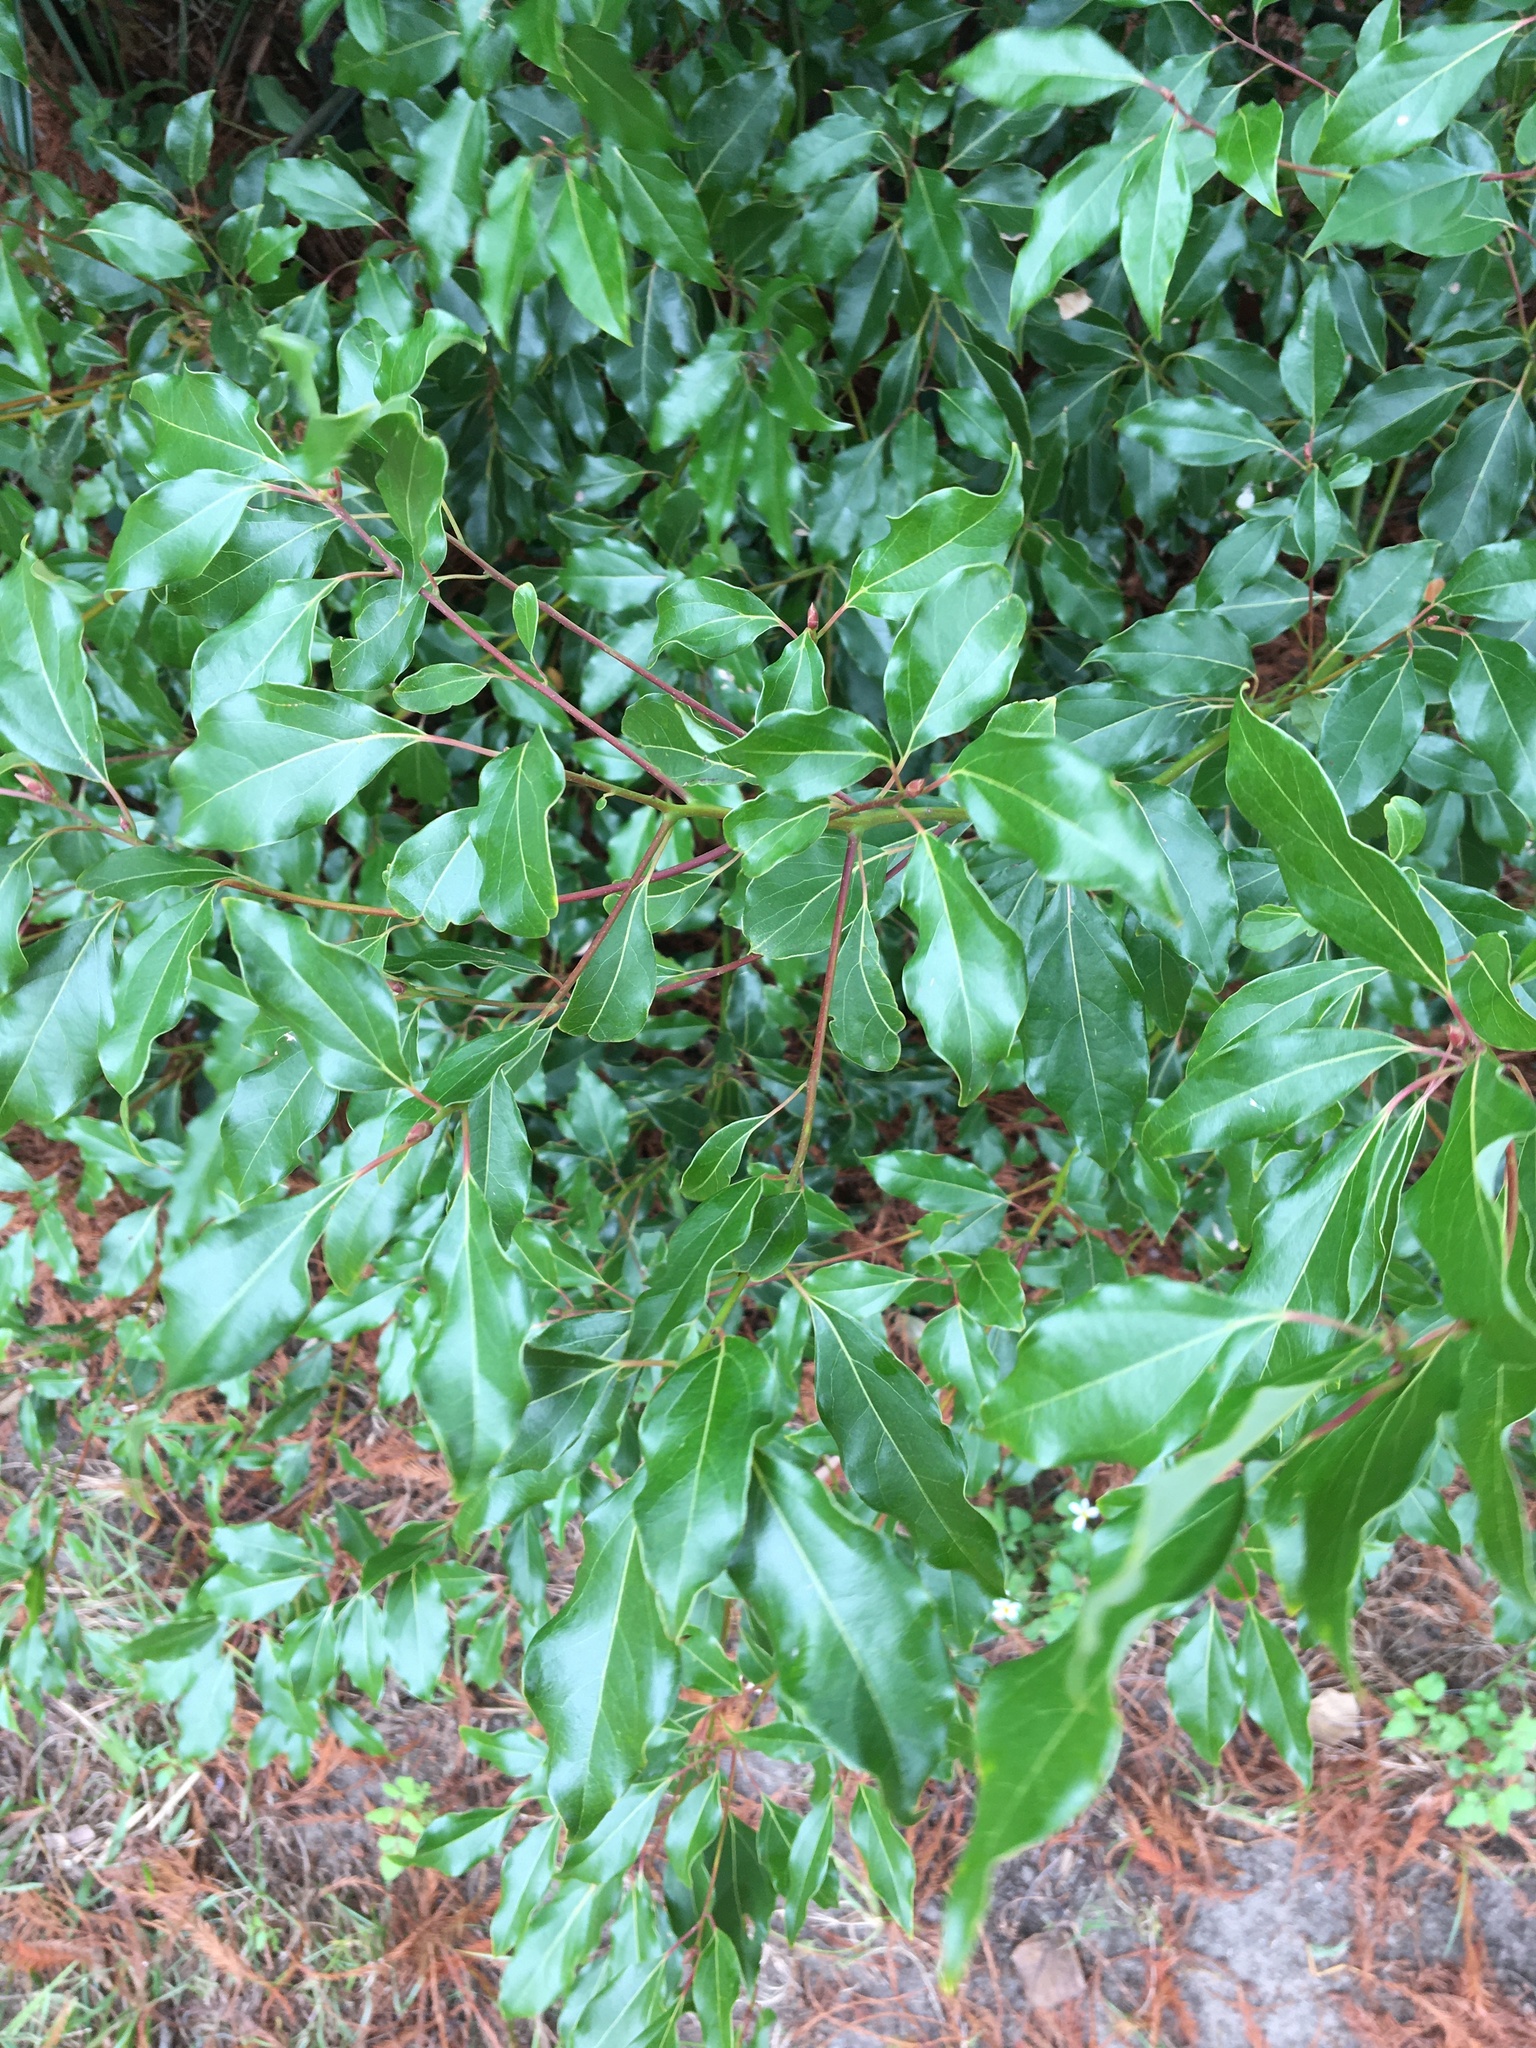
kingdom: Plantae
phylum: Tracheophyta
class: Magnoliopsida
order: Laurales
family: Lauraceae
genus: Cinnamomum
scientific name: Cinnamomum camphora
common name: Camphortree
